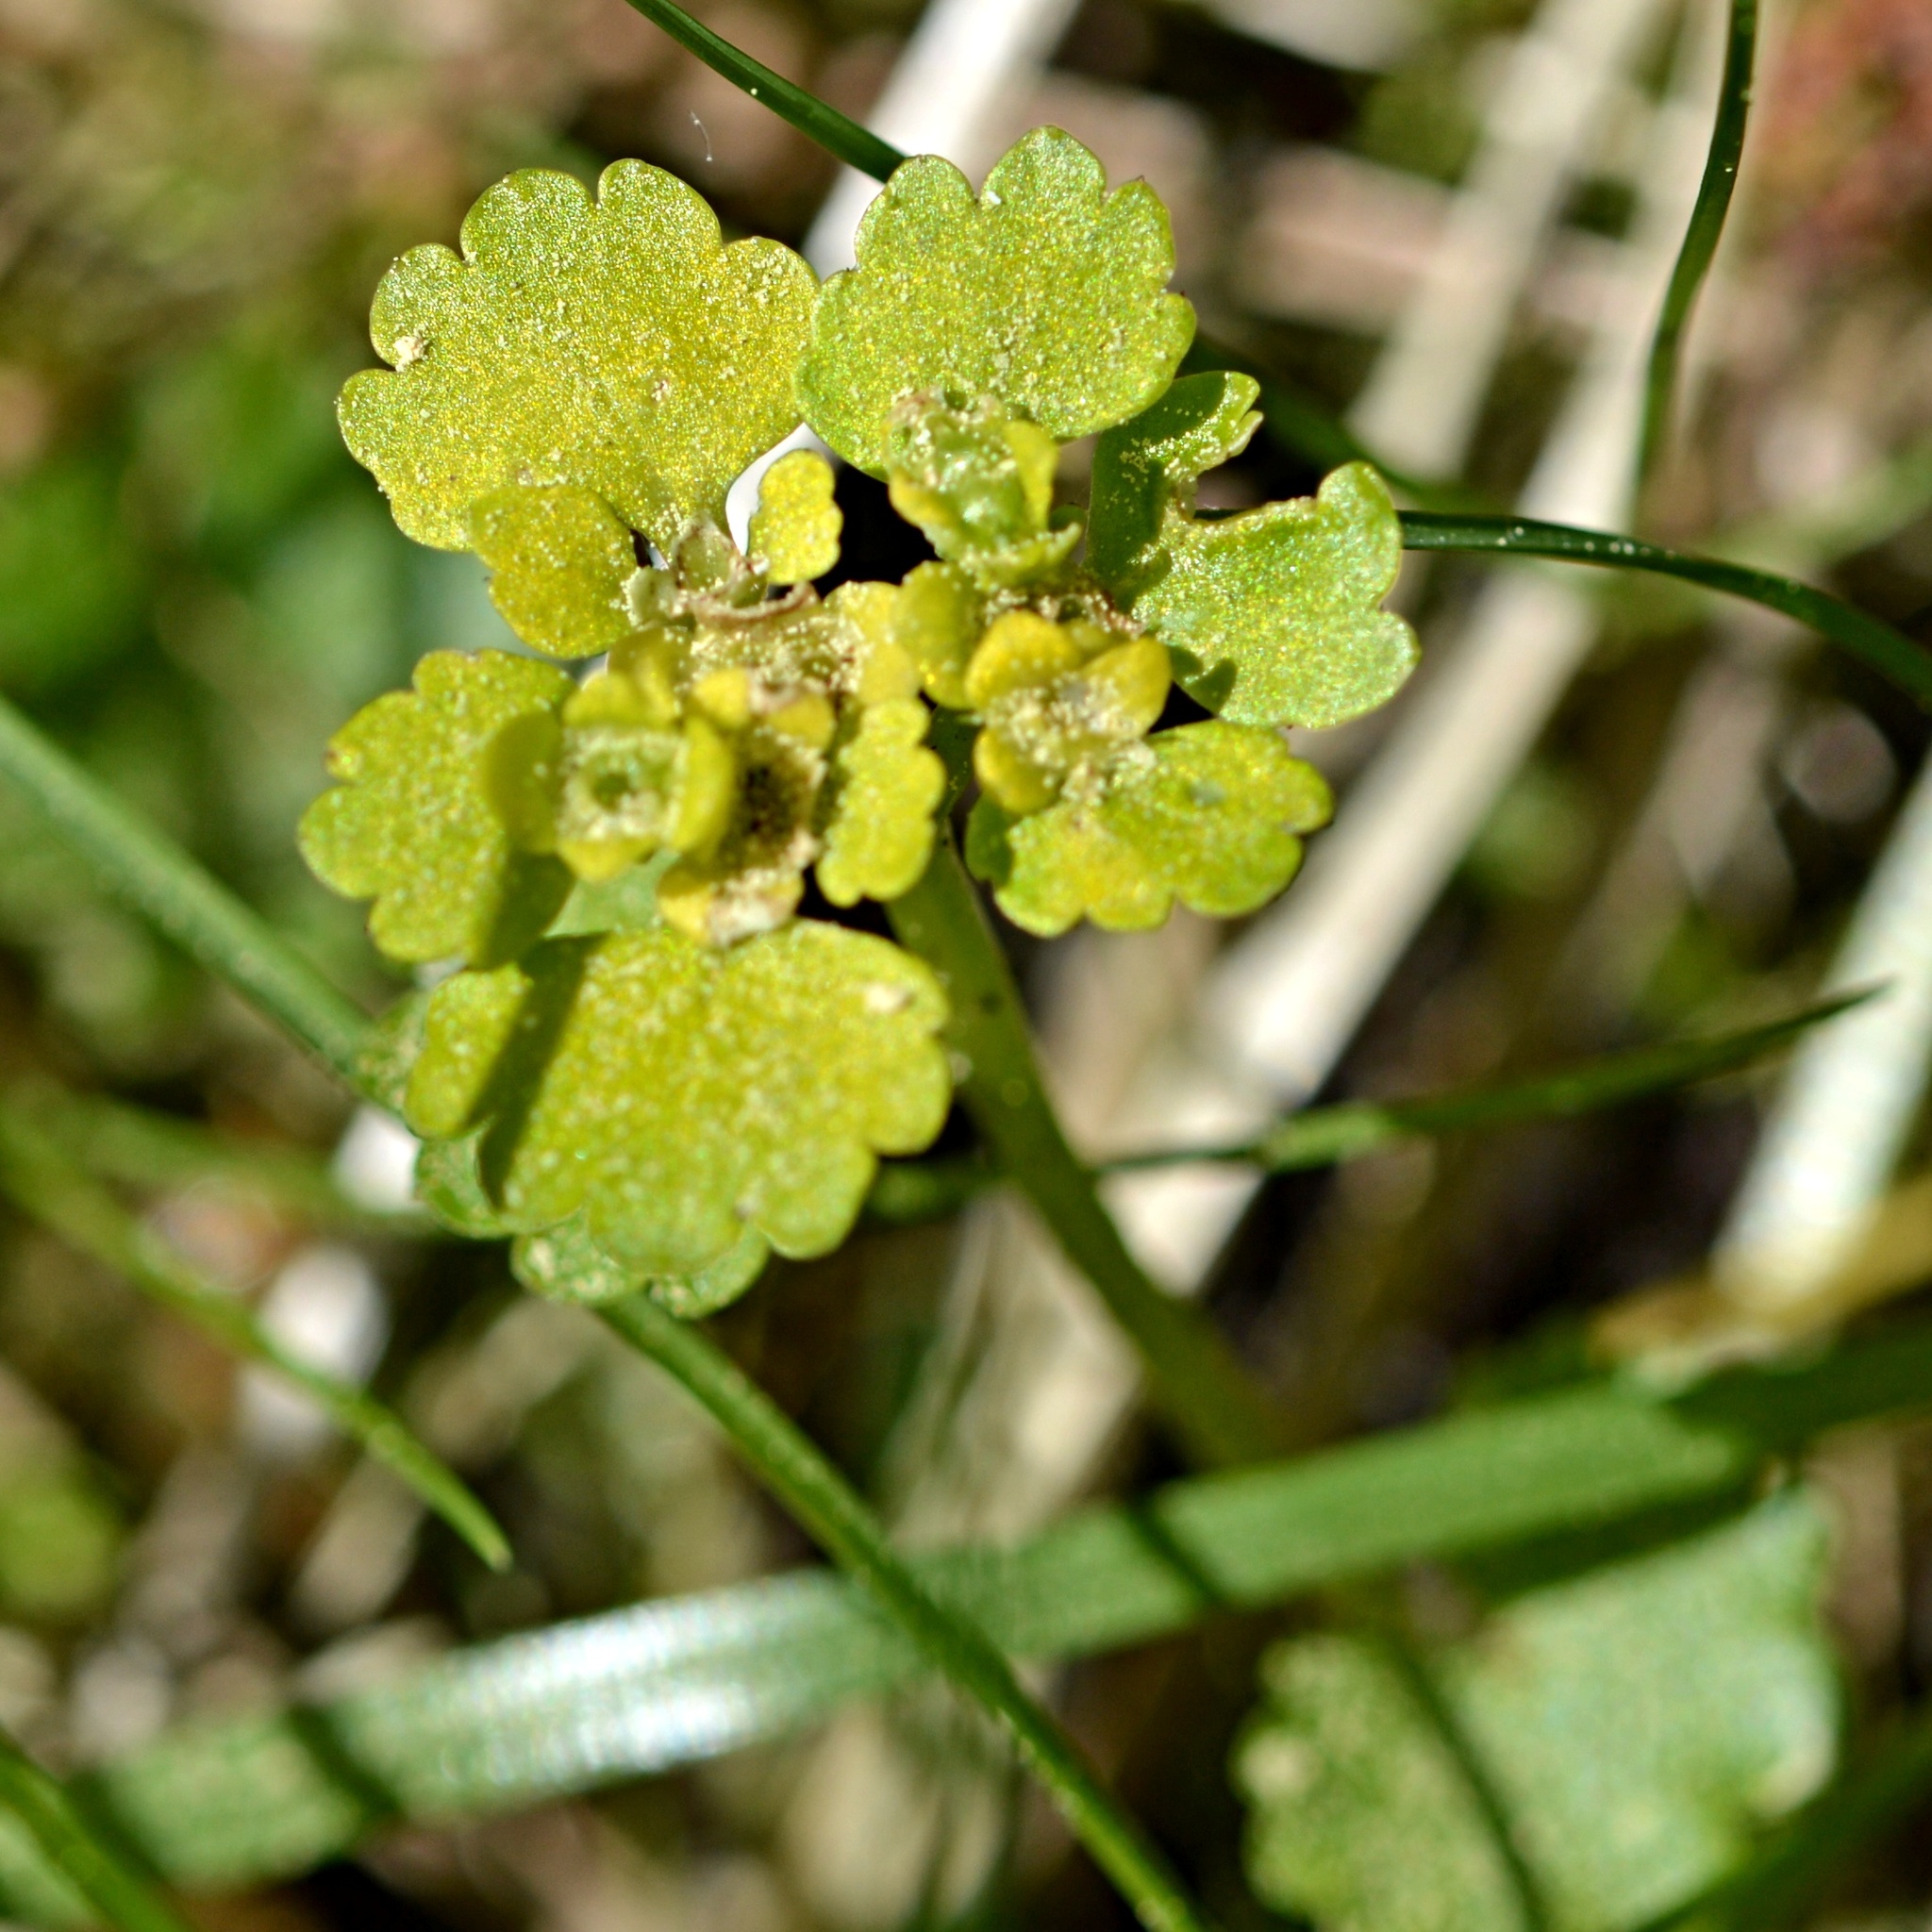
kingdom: Plantae
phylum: Tracheophyta
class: Magnoliopsida
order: Saxifragales
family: Saxifragaceae
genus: Chrysosplenium
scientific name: Chrysosplenium alternifolium
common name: Alternate-leaved golden-saxifrage
